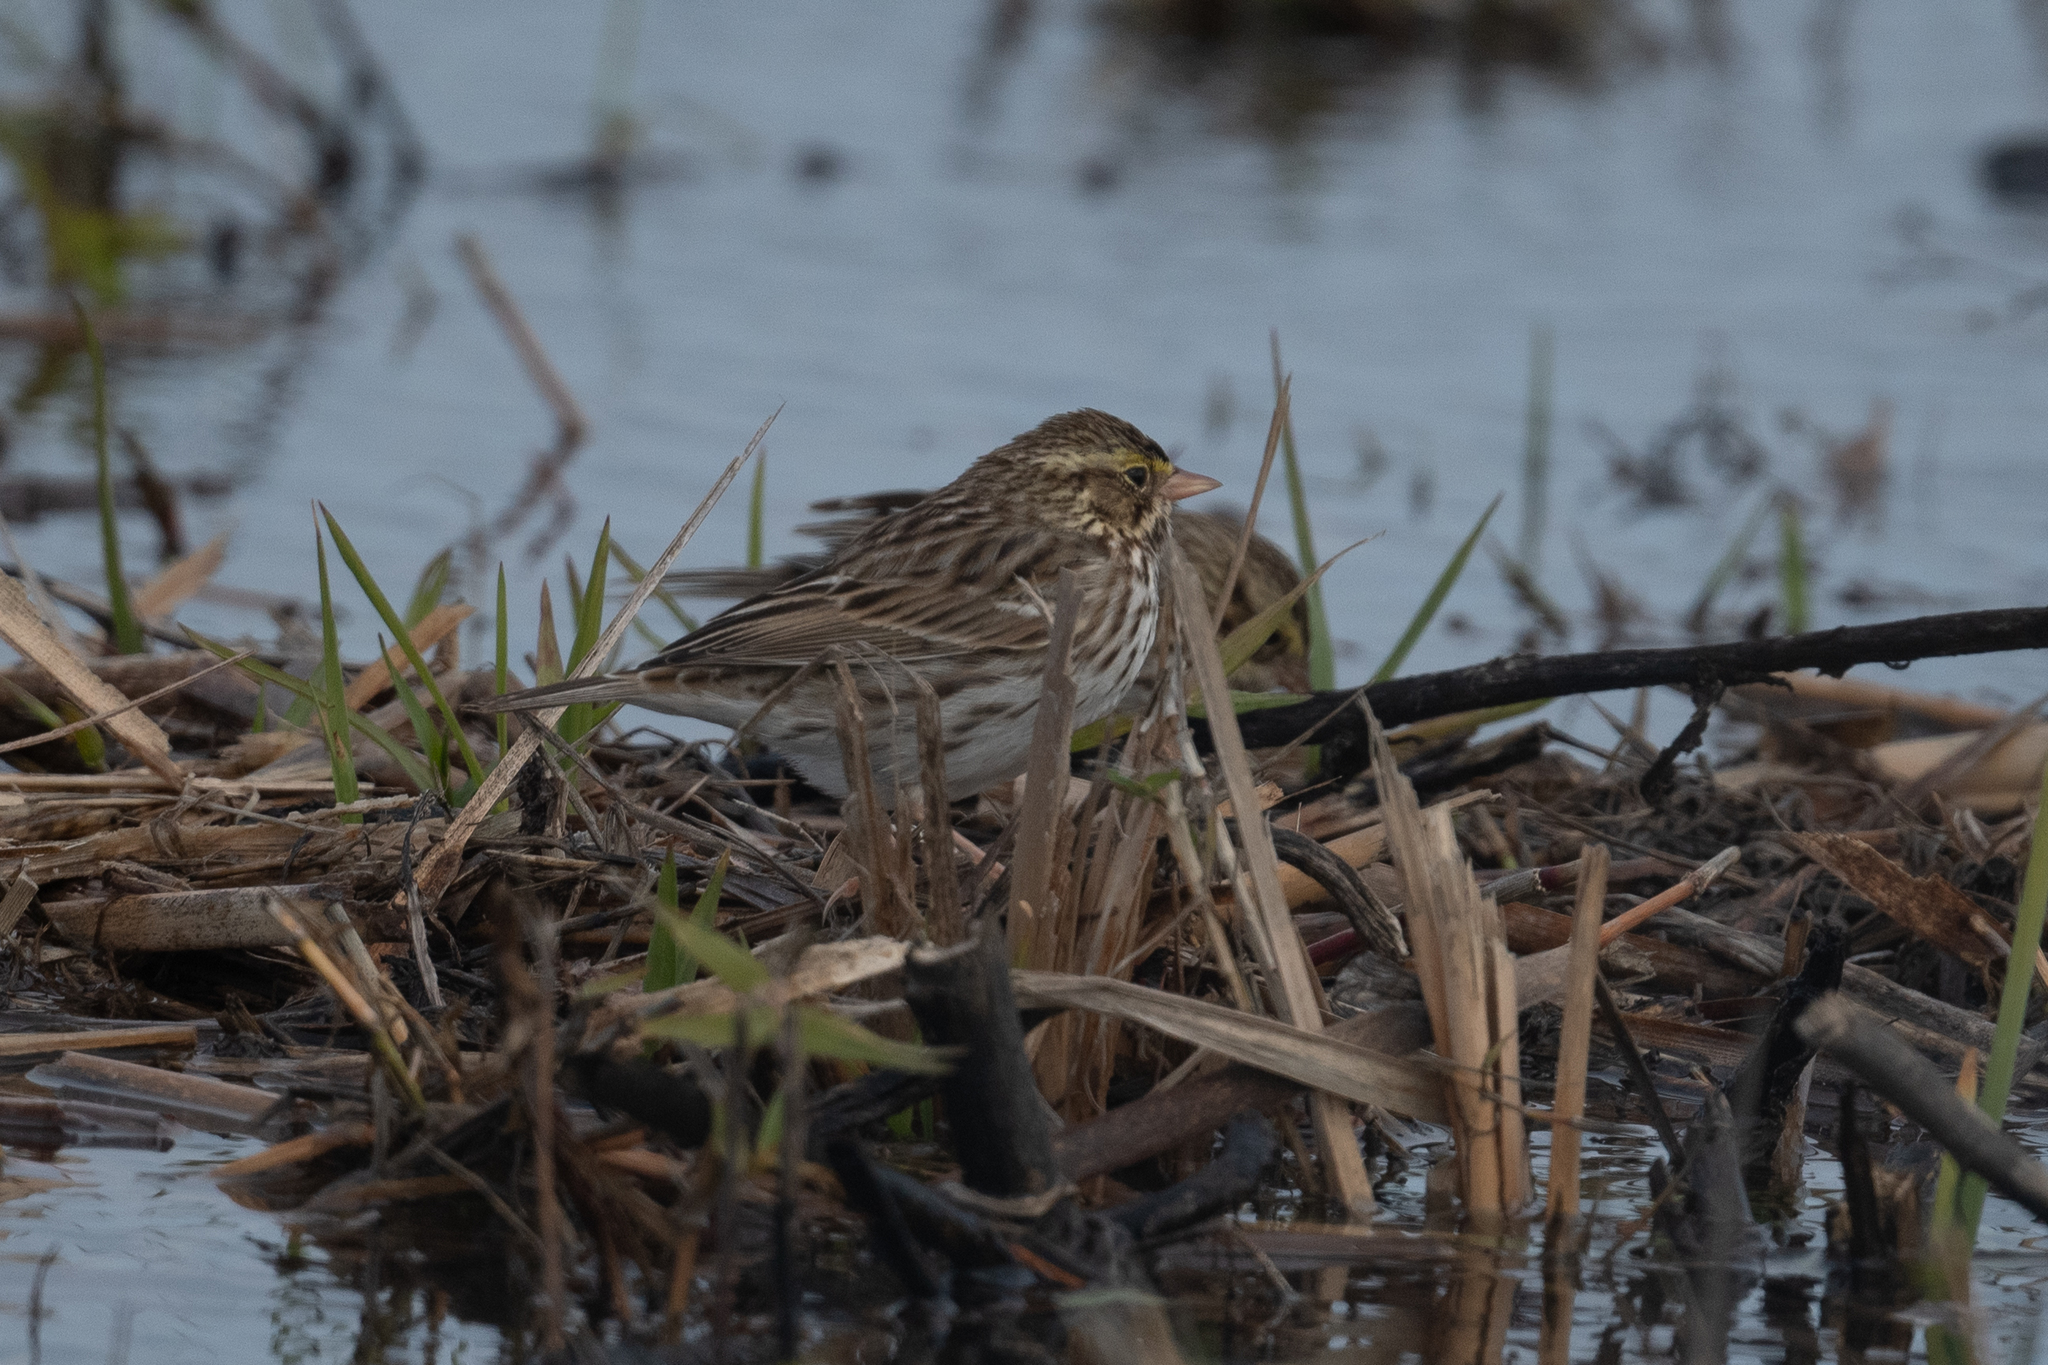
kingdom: Animalia
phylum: Chordata
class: Aves
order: Passeriformes
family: Passerellidae
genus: Passerculus
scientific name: Passerculus sandwichensis
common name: Savannah sparrow
